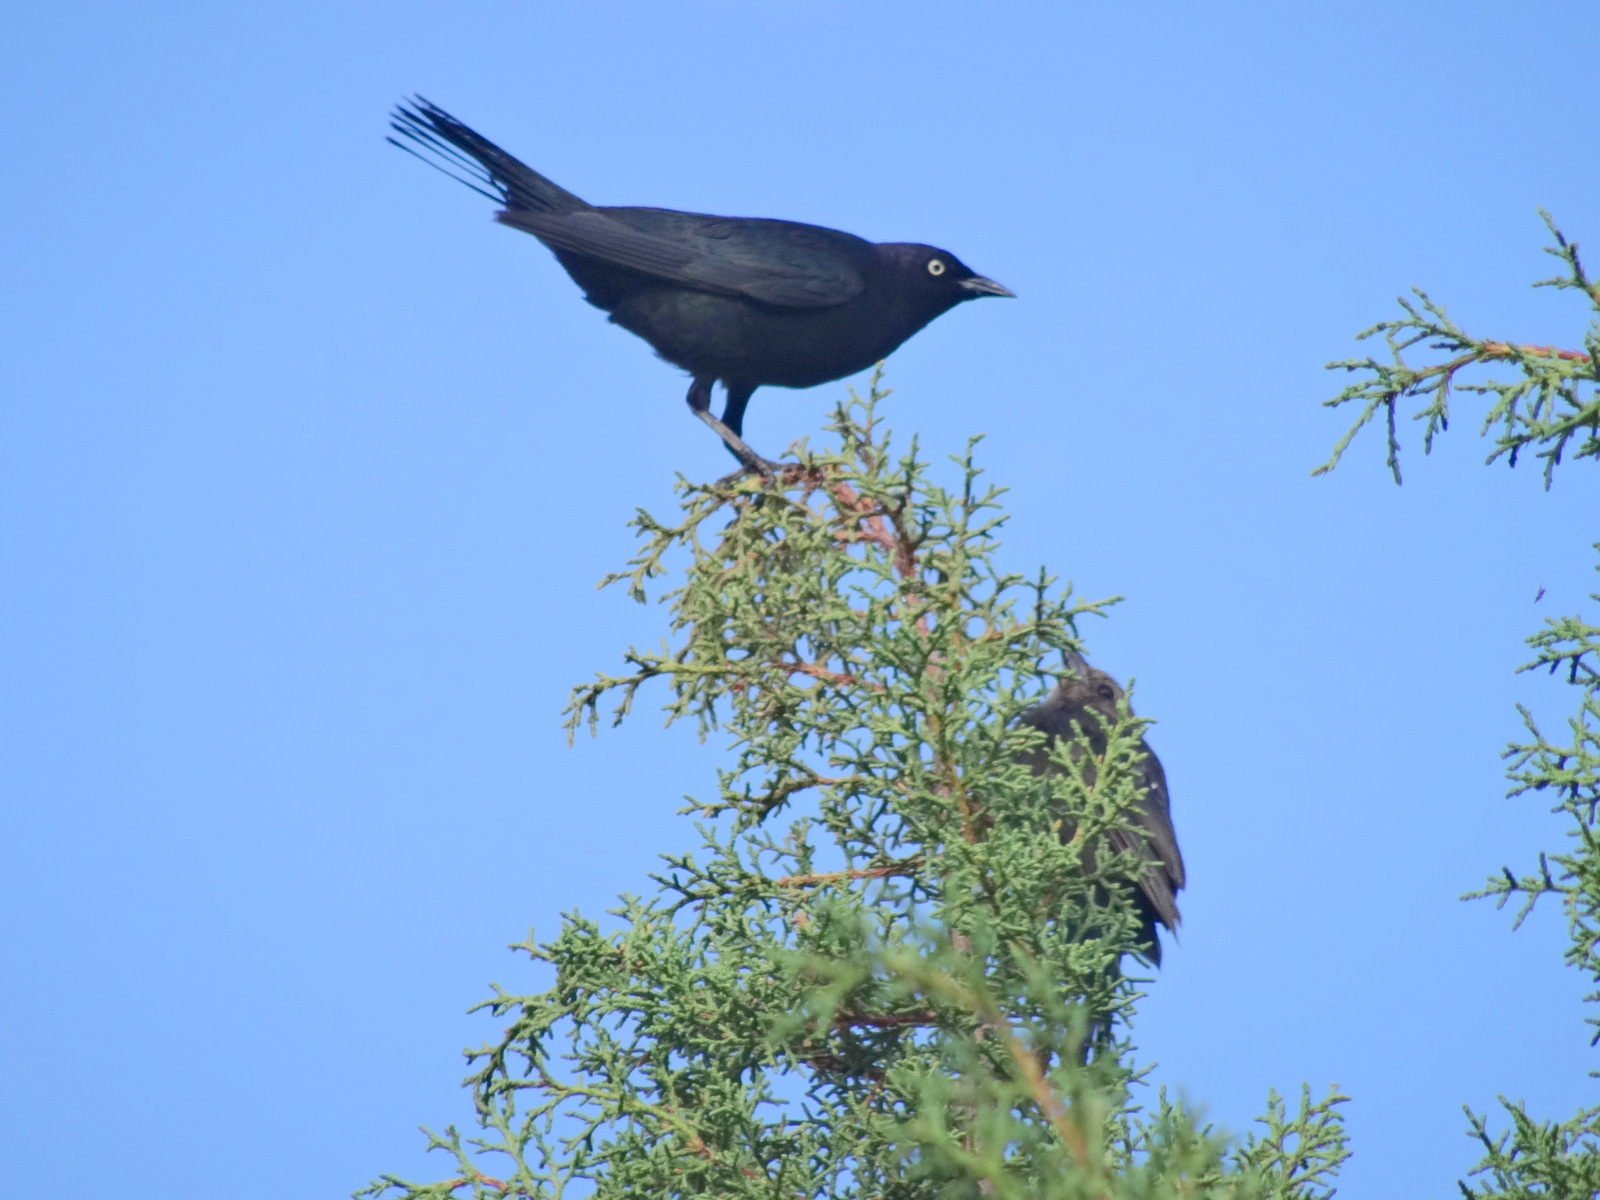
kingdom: Animalia
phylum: Chordata
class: Aves
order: Passeriformes
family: Icteridae
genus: Euphagus
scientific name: Euphagus cyanocephalus
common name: Brewer's blackbird
